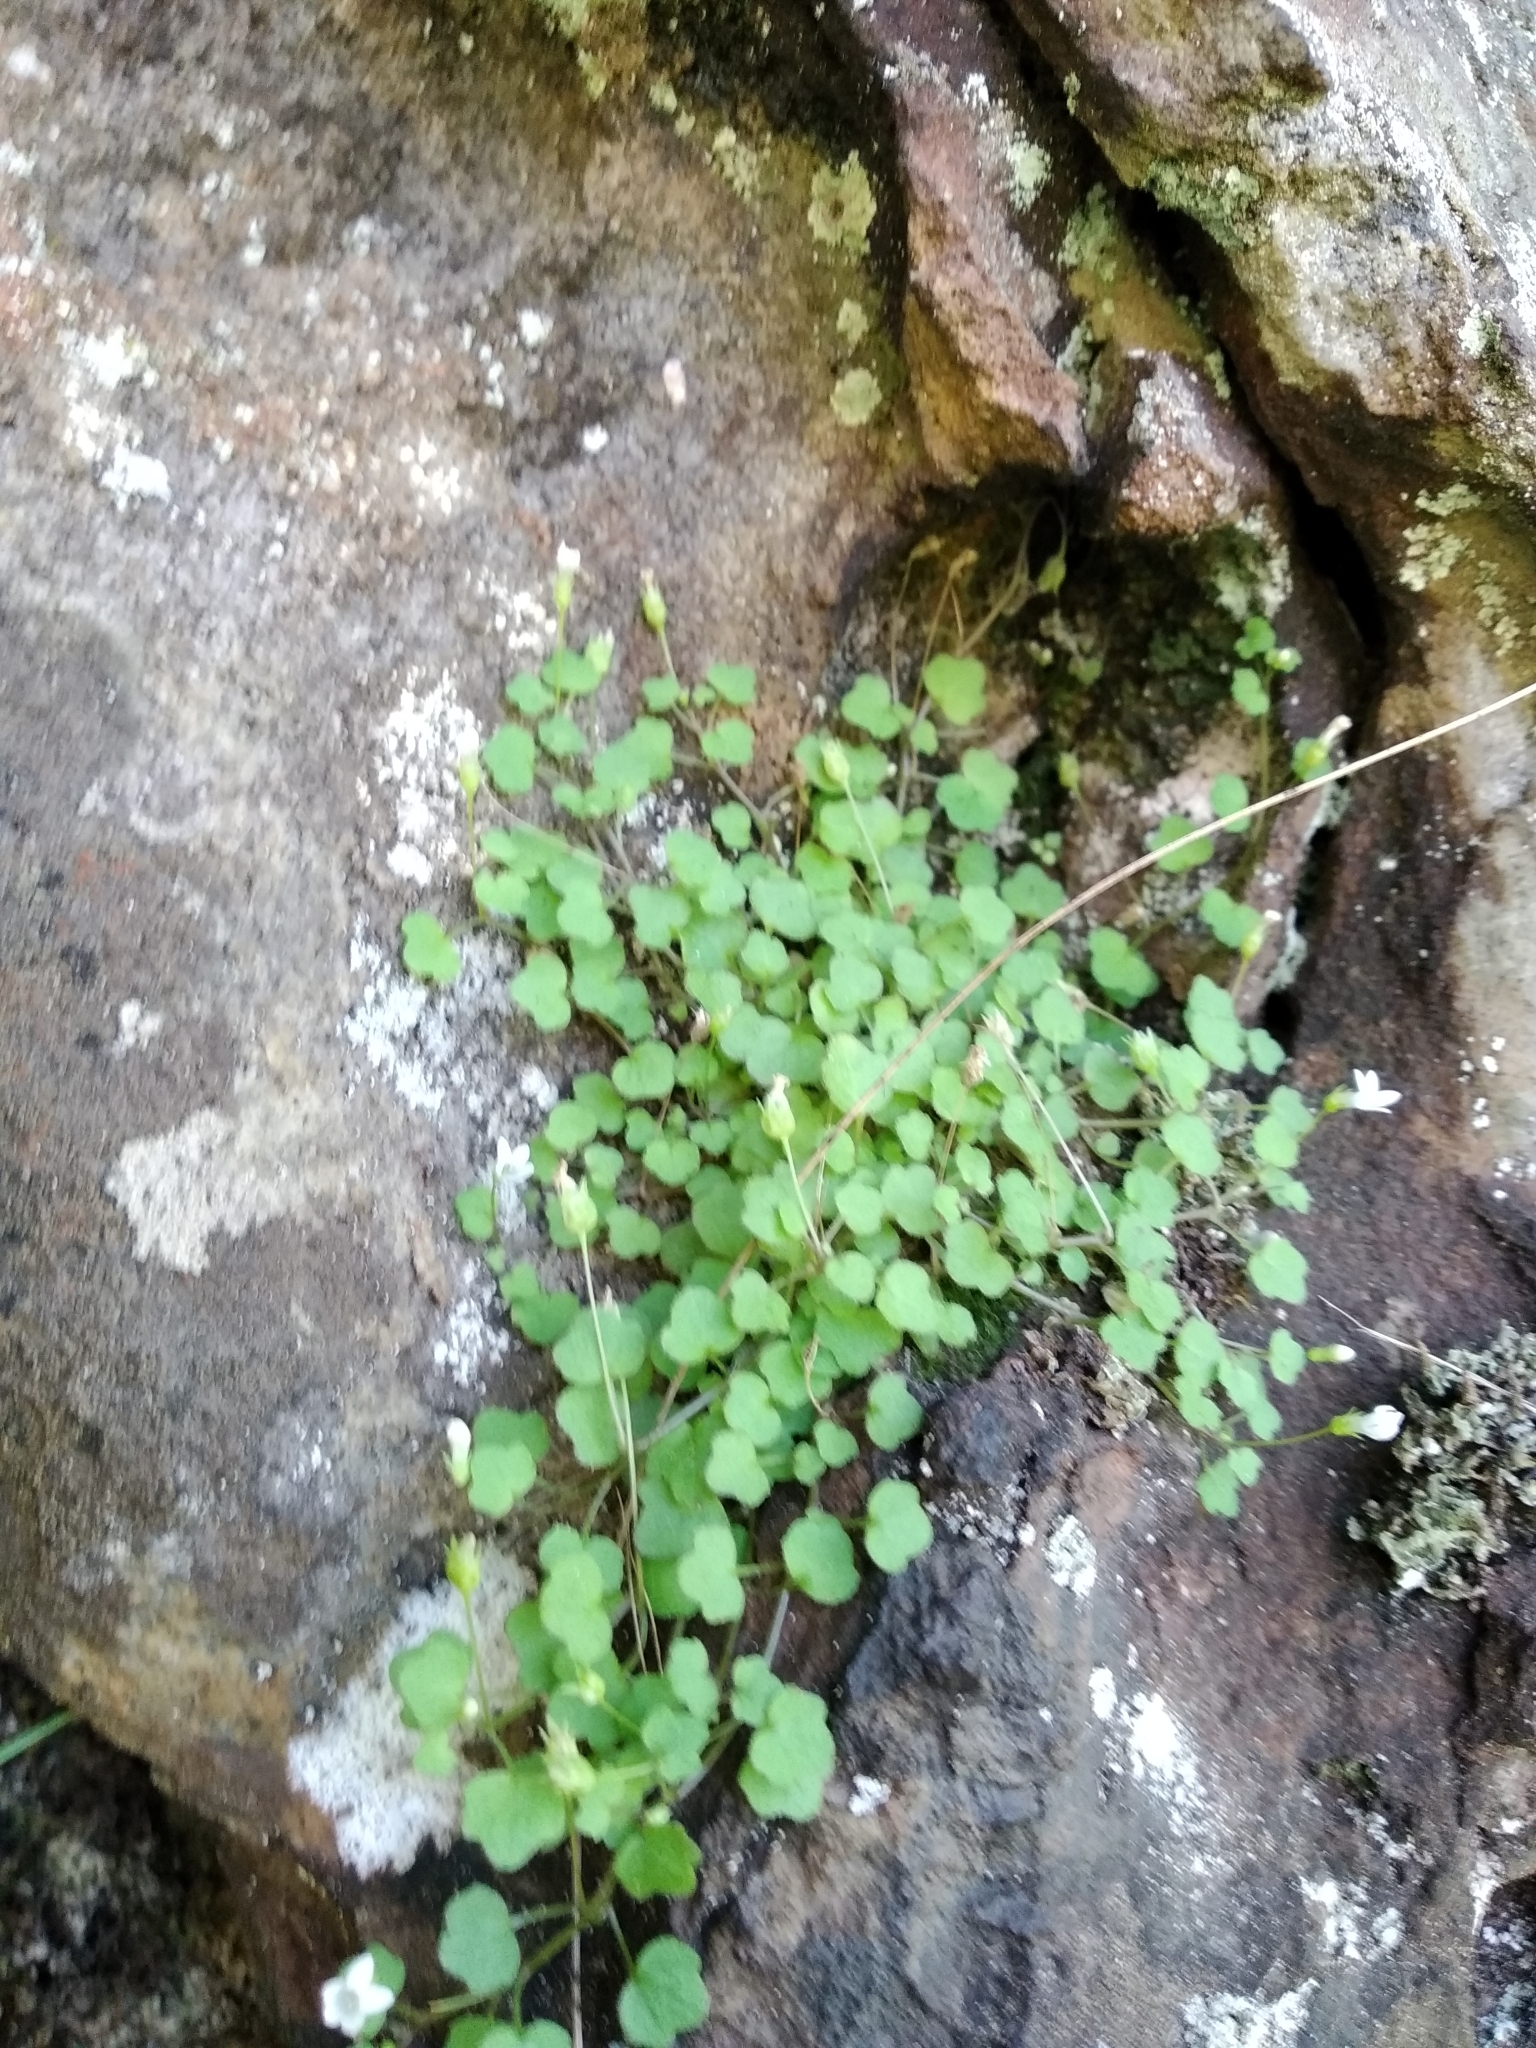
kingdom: Plantae
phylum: Tracheophyta
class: Magnoliopsida
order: Asterales
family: Campanulaceae
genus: Wimmerella
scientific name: Wimmerella pygmaea
